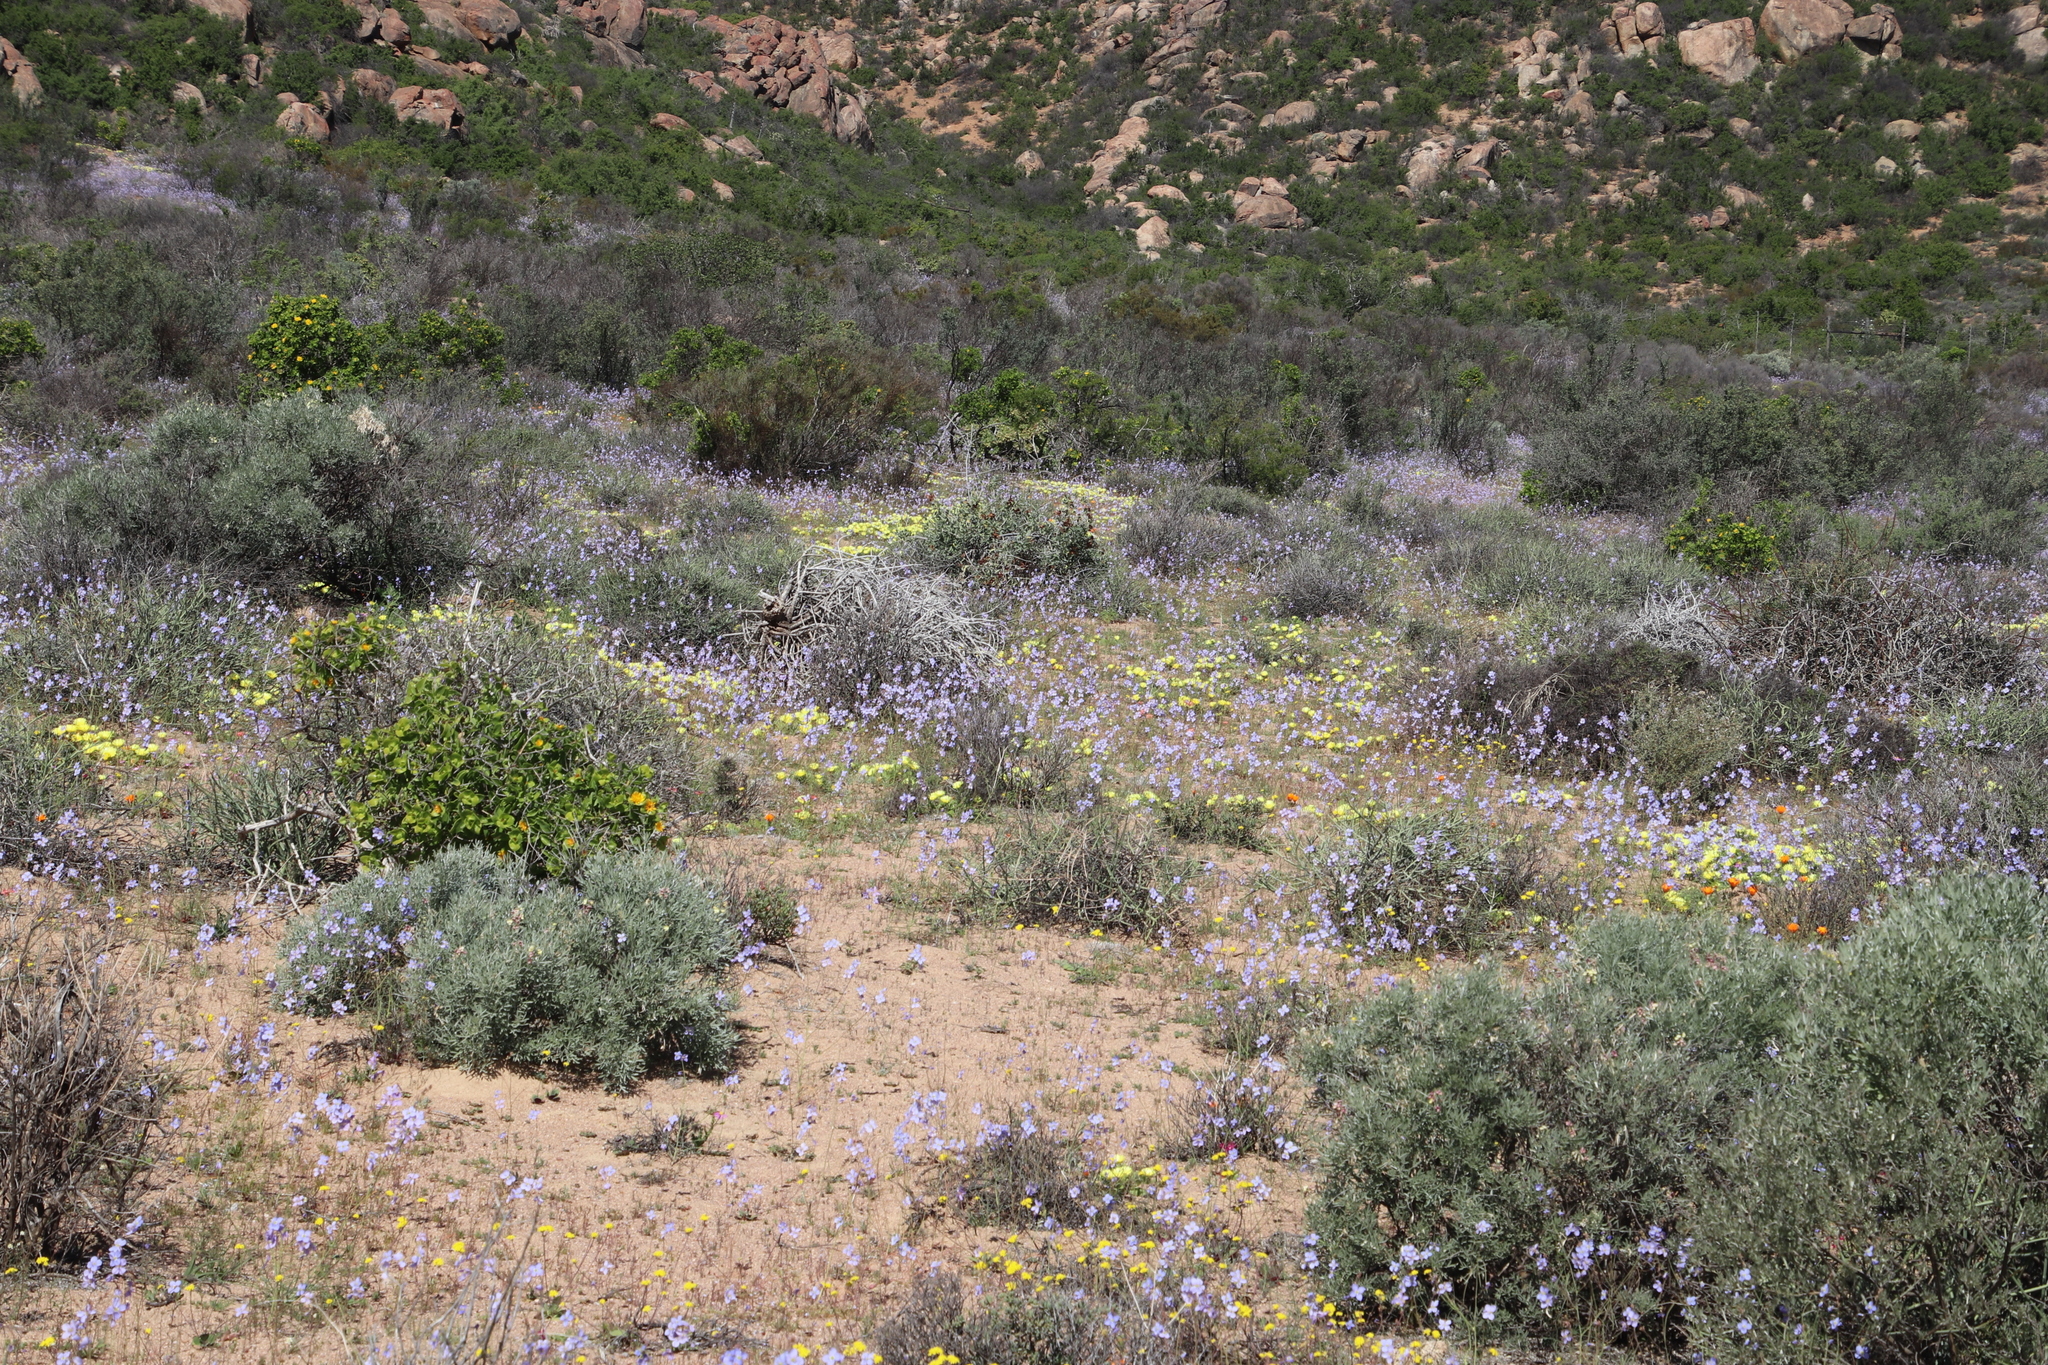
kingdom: Plantae
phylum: Tracheophyta
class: Magnoliopsida
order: Brassicales
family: Brassicaceae
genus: Heliophila
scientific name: Heliophila leptophylla
